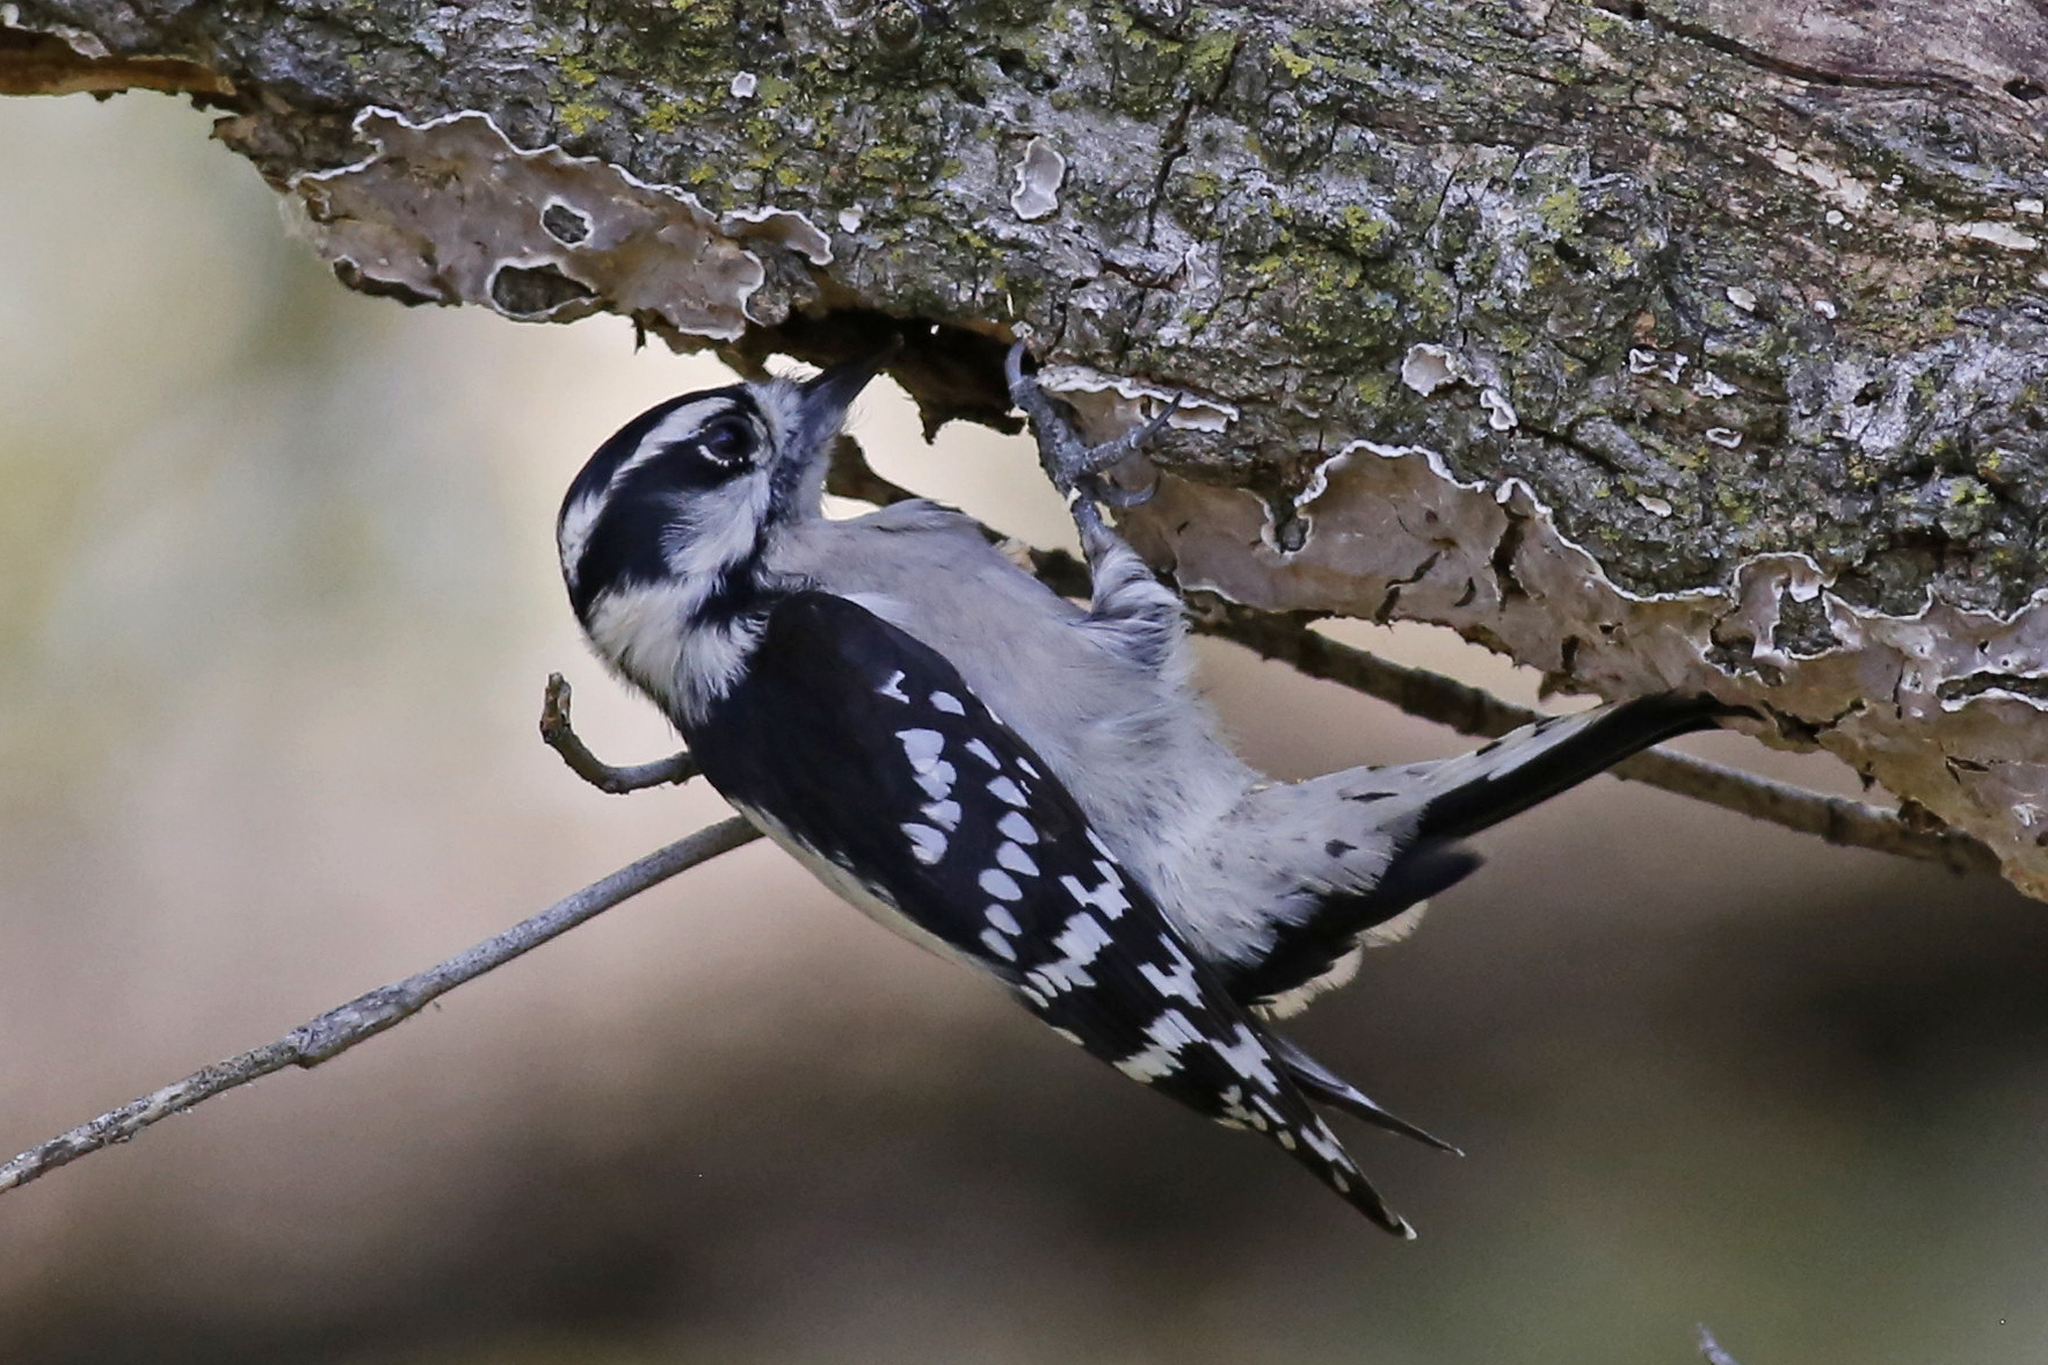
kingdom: Animalia
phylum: Chordata
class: Aves
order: Piciformes
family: Picidae
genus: Dryobates
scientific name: Dryobates pubescens
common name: Downy woodpecker
